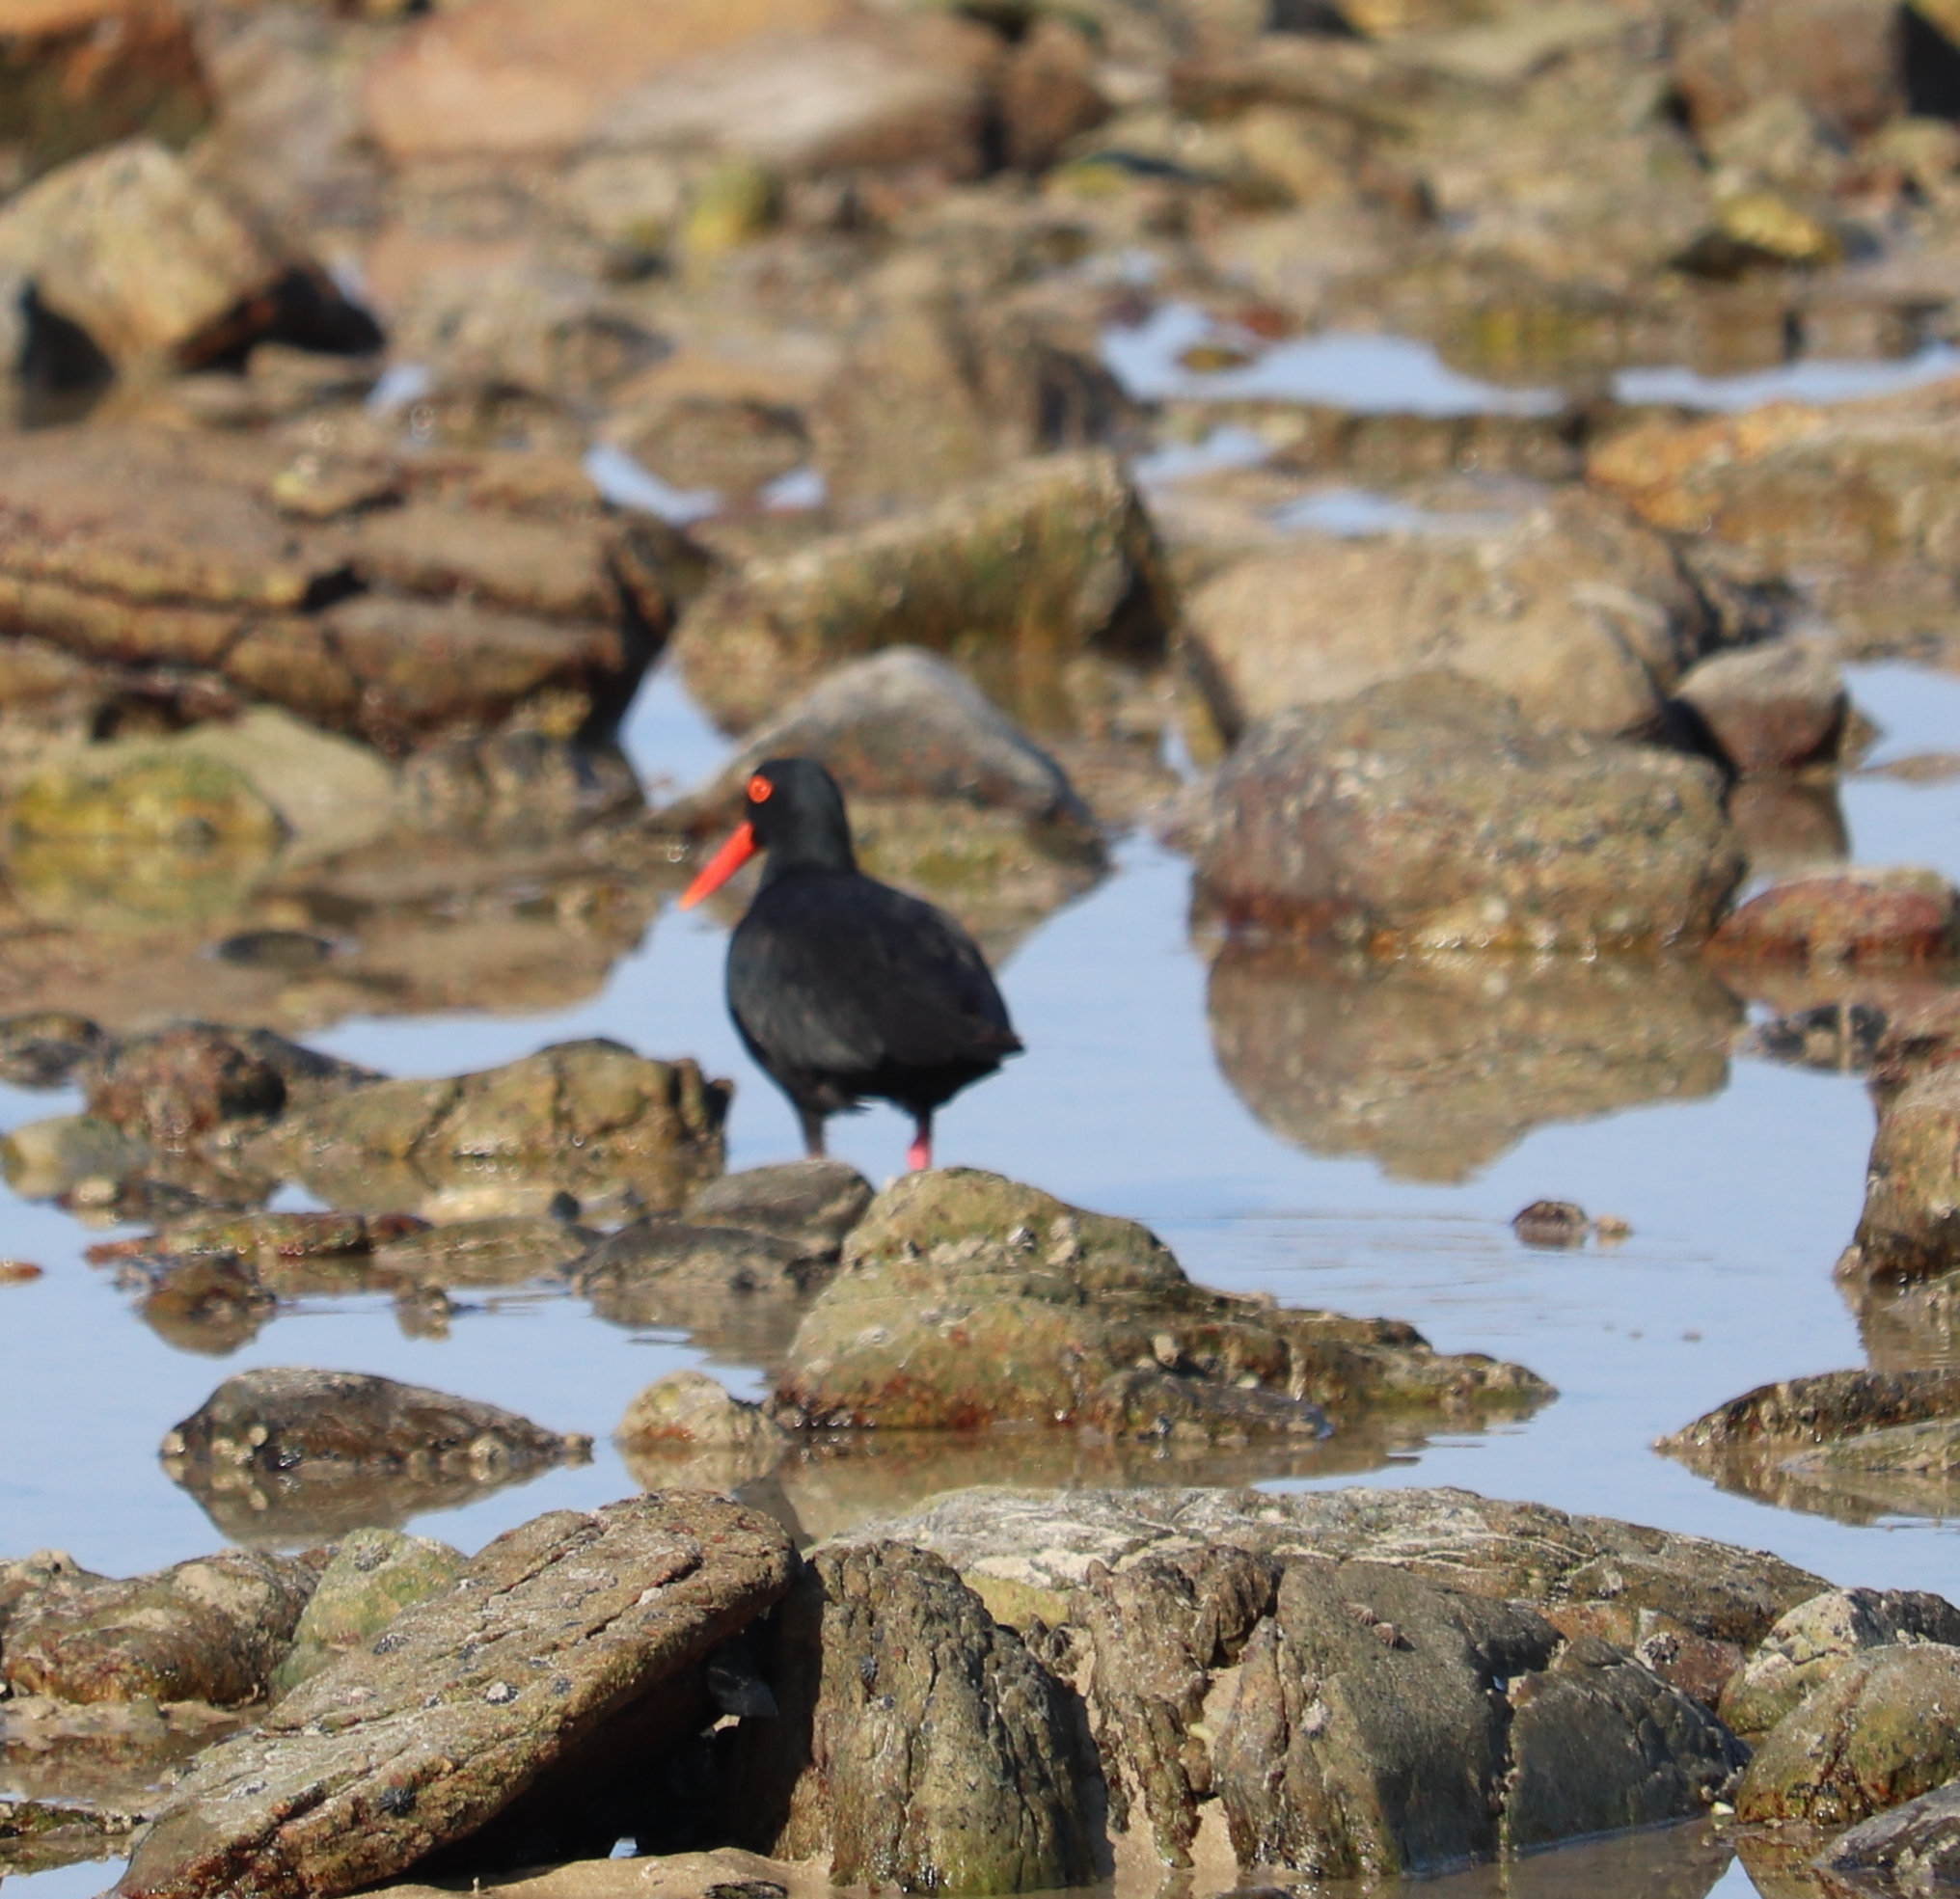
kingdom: Animalia
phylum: Chordata
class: Aves
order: Charadriiformes
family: Haematopodidae
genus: Haematopus
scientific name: Haematopus moquini
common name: African oystercatcher
